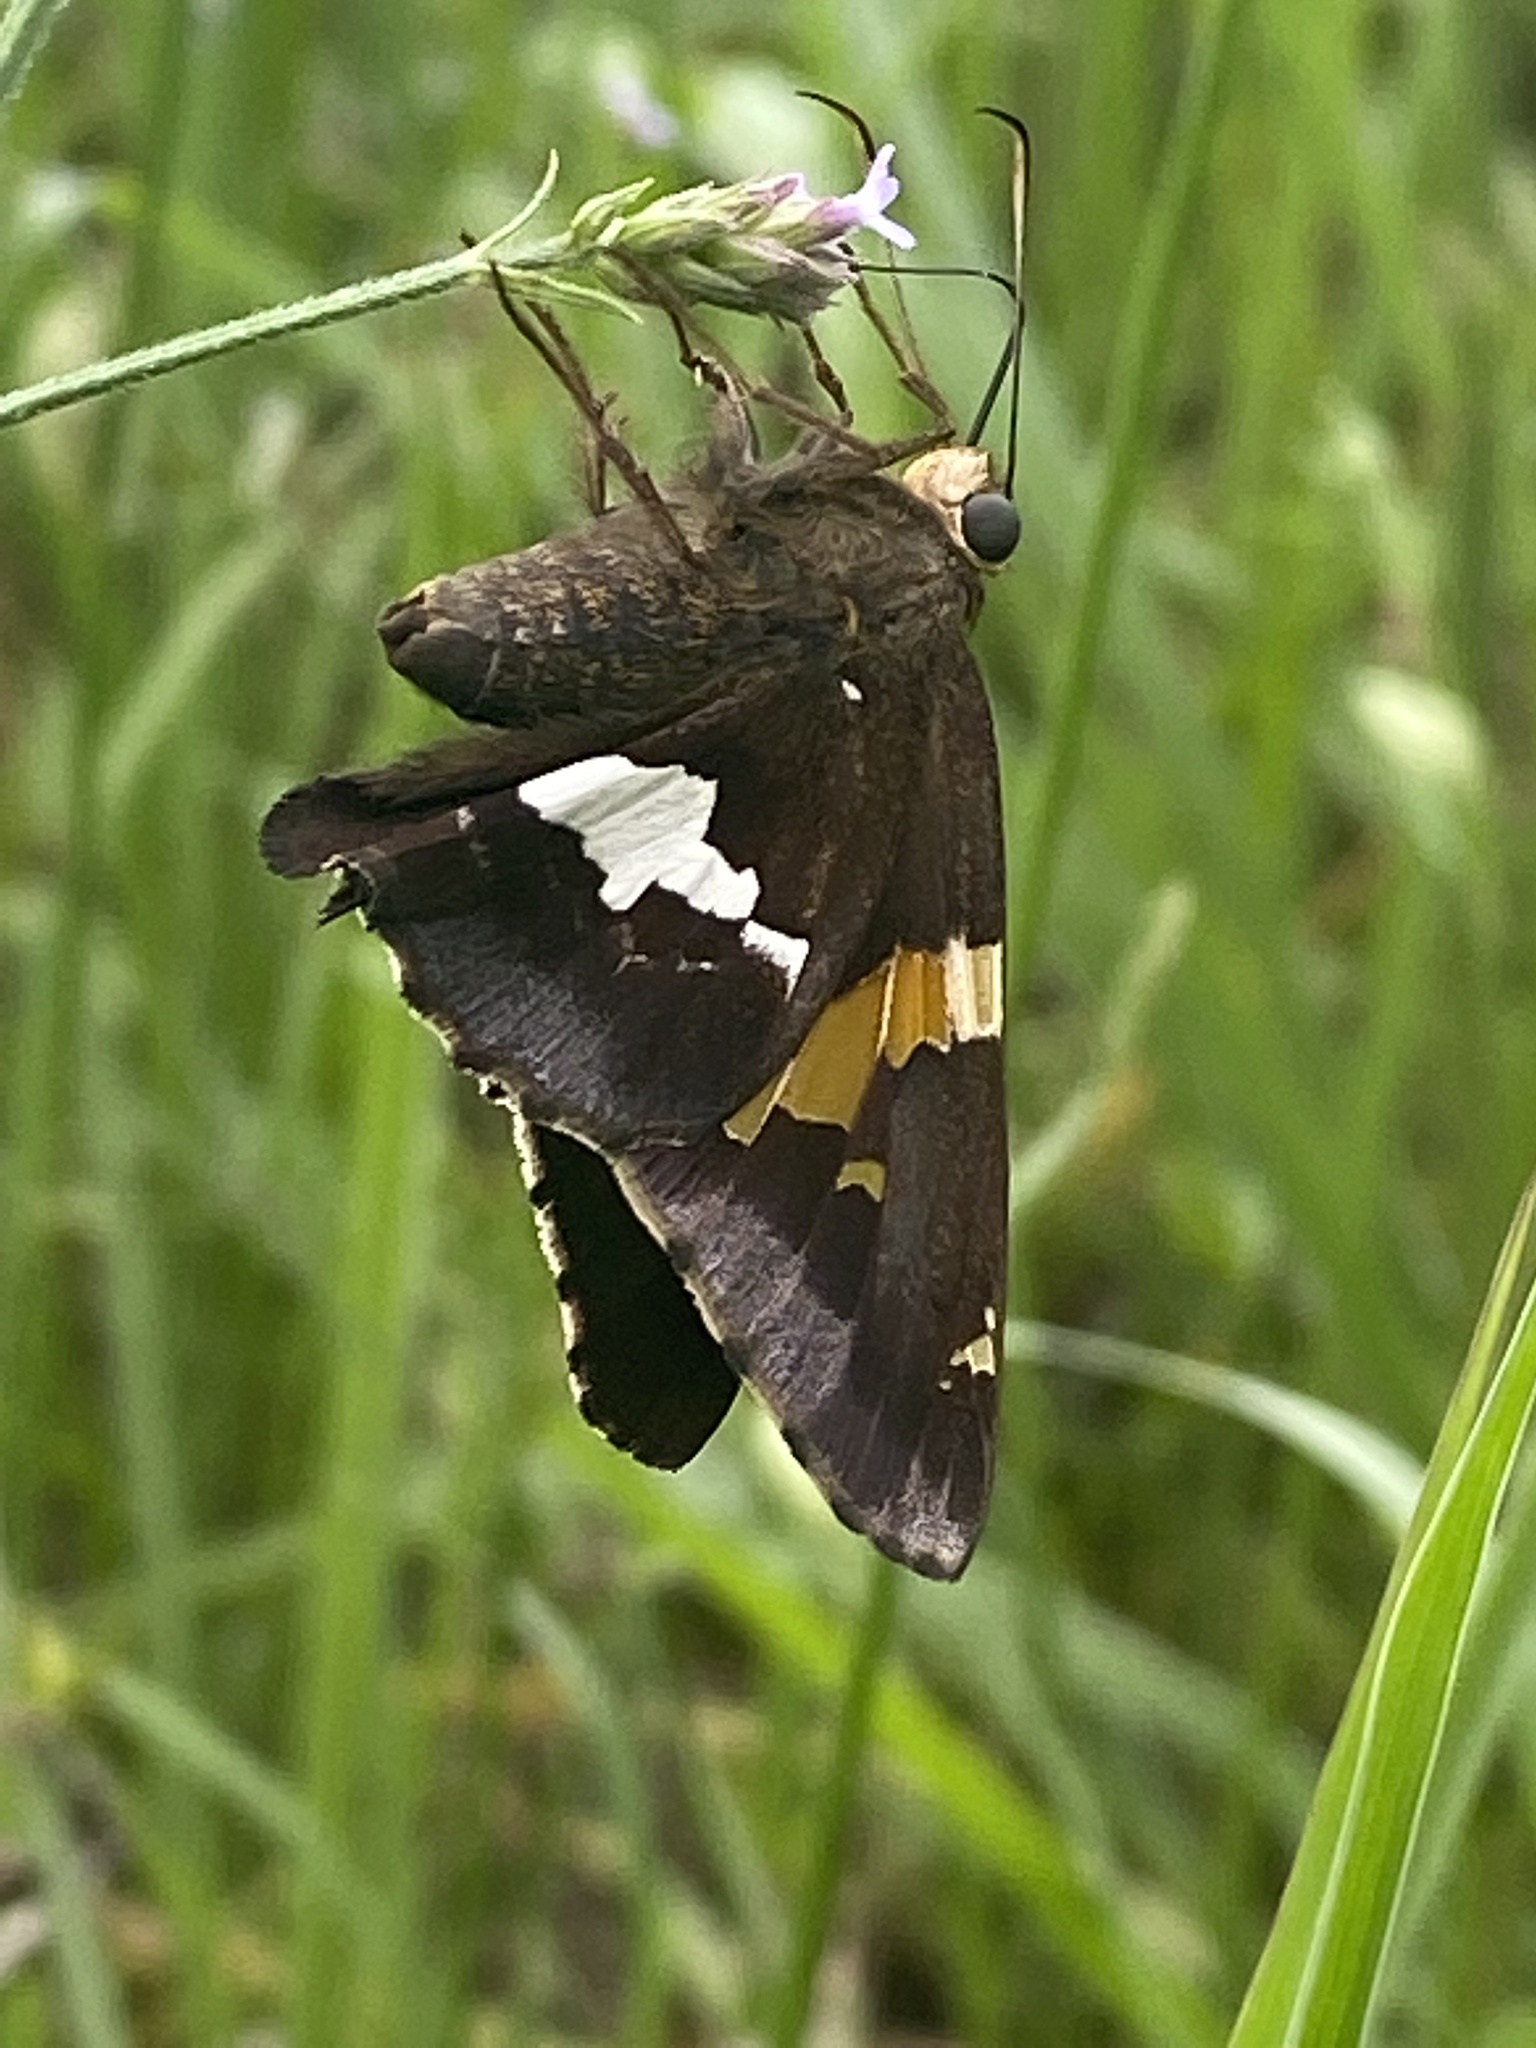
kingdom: Animalia
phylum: Arthropoda
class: Insecta
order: Lepidoptera
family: Hesperiidae
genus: Epargyreus
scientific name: Epargyreus clarus
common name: Silver-spotted skipper
